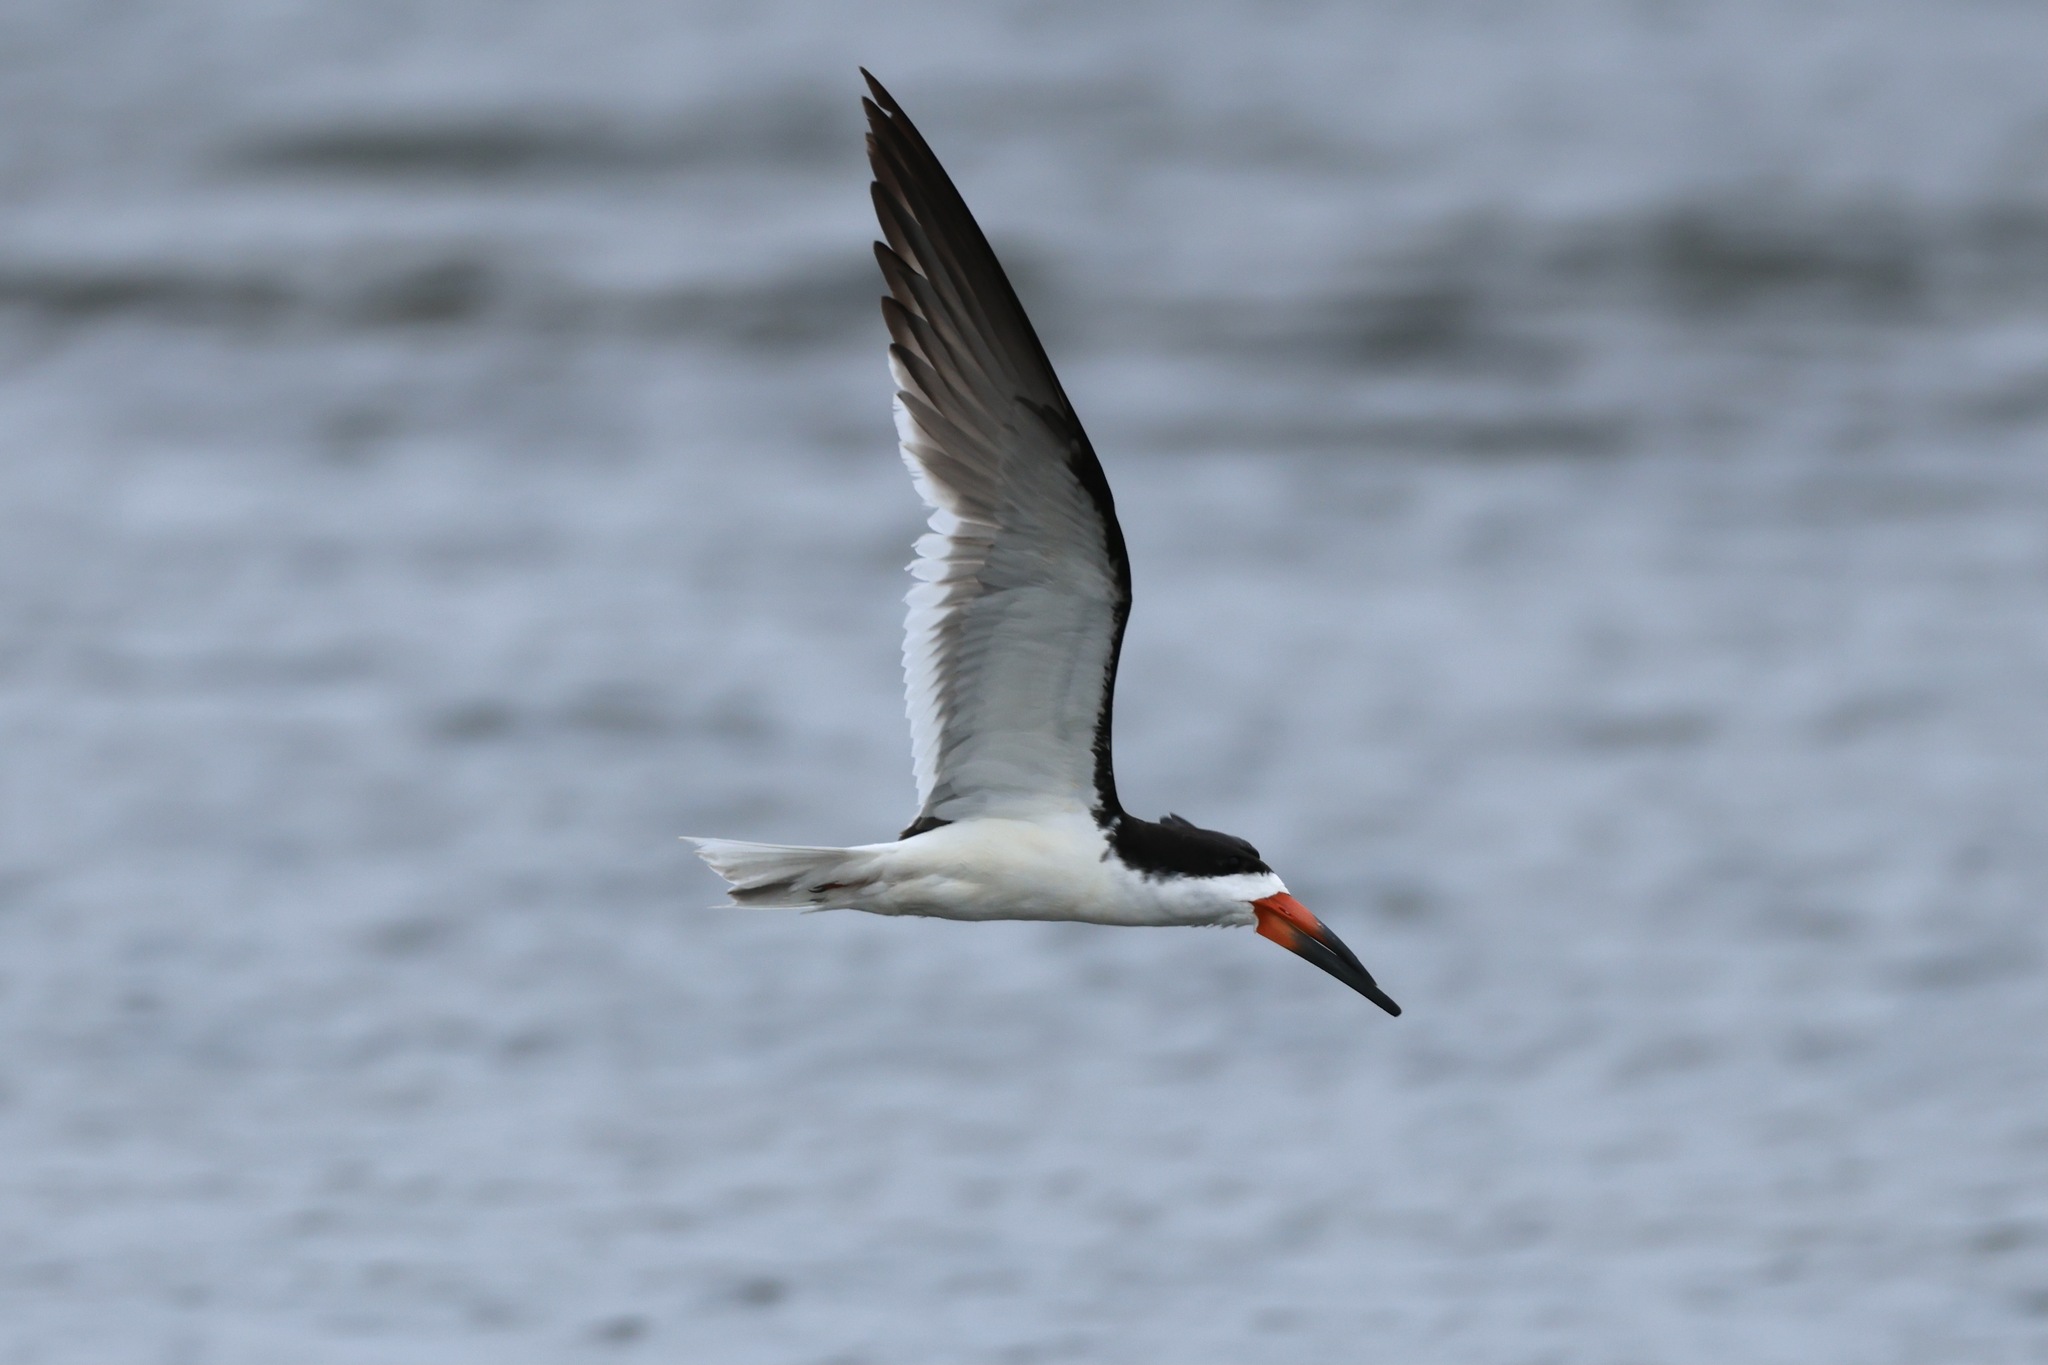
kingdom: Animalia
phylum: Chordata
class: Aves
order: Charadriiformes
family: Laridae
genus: Rynchops
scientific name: Rynchops niger
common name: Black skimmer
